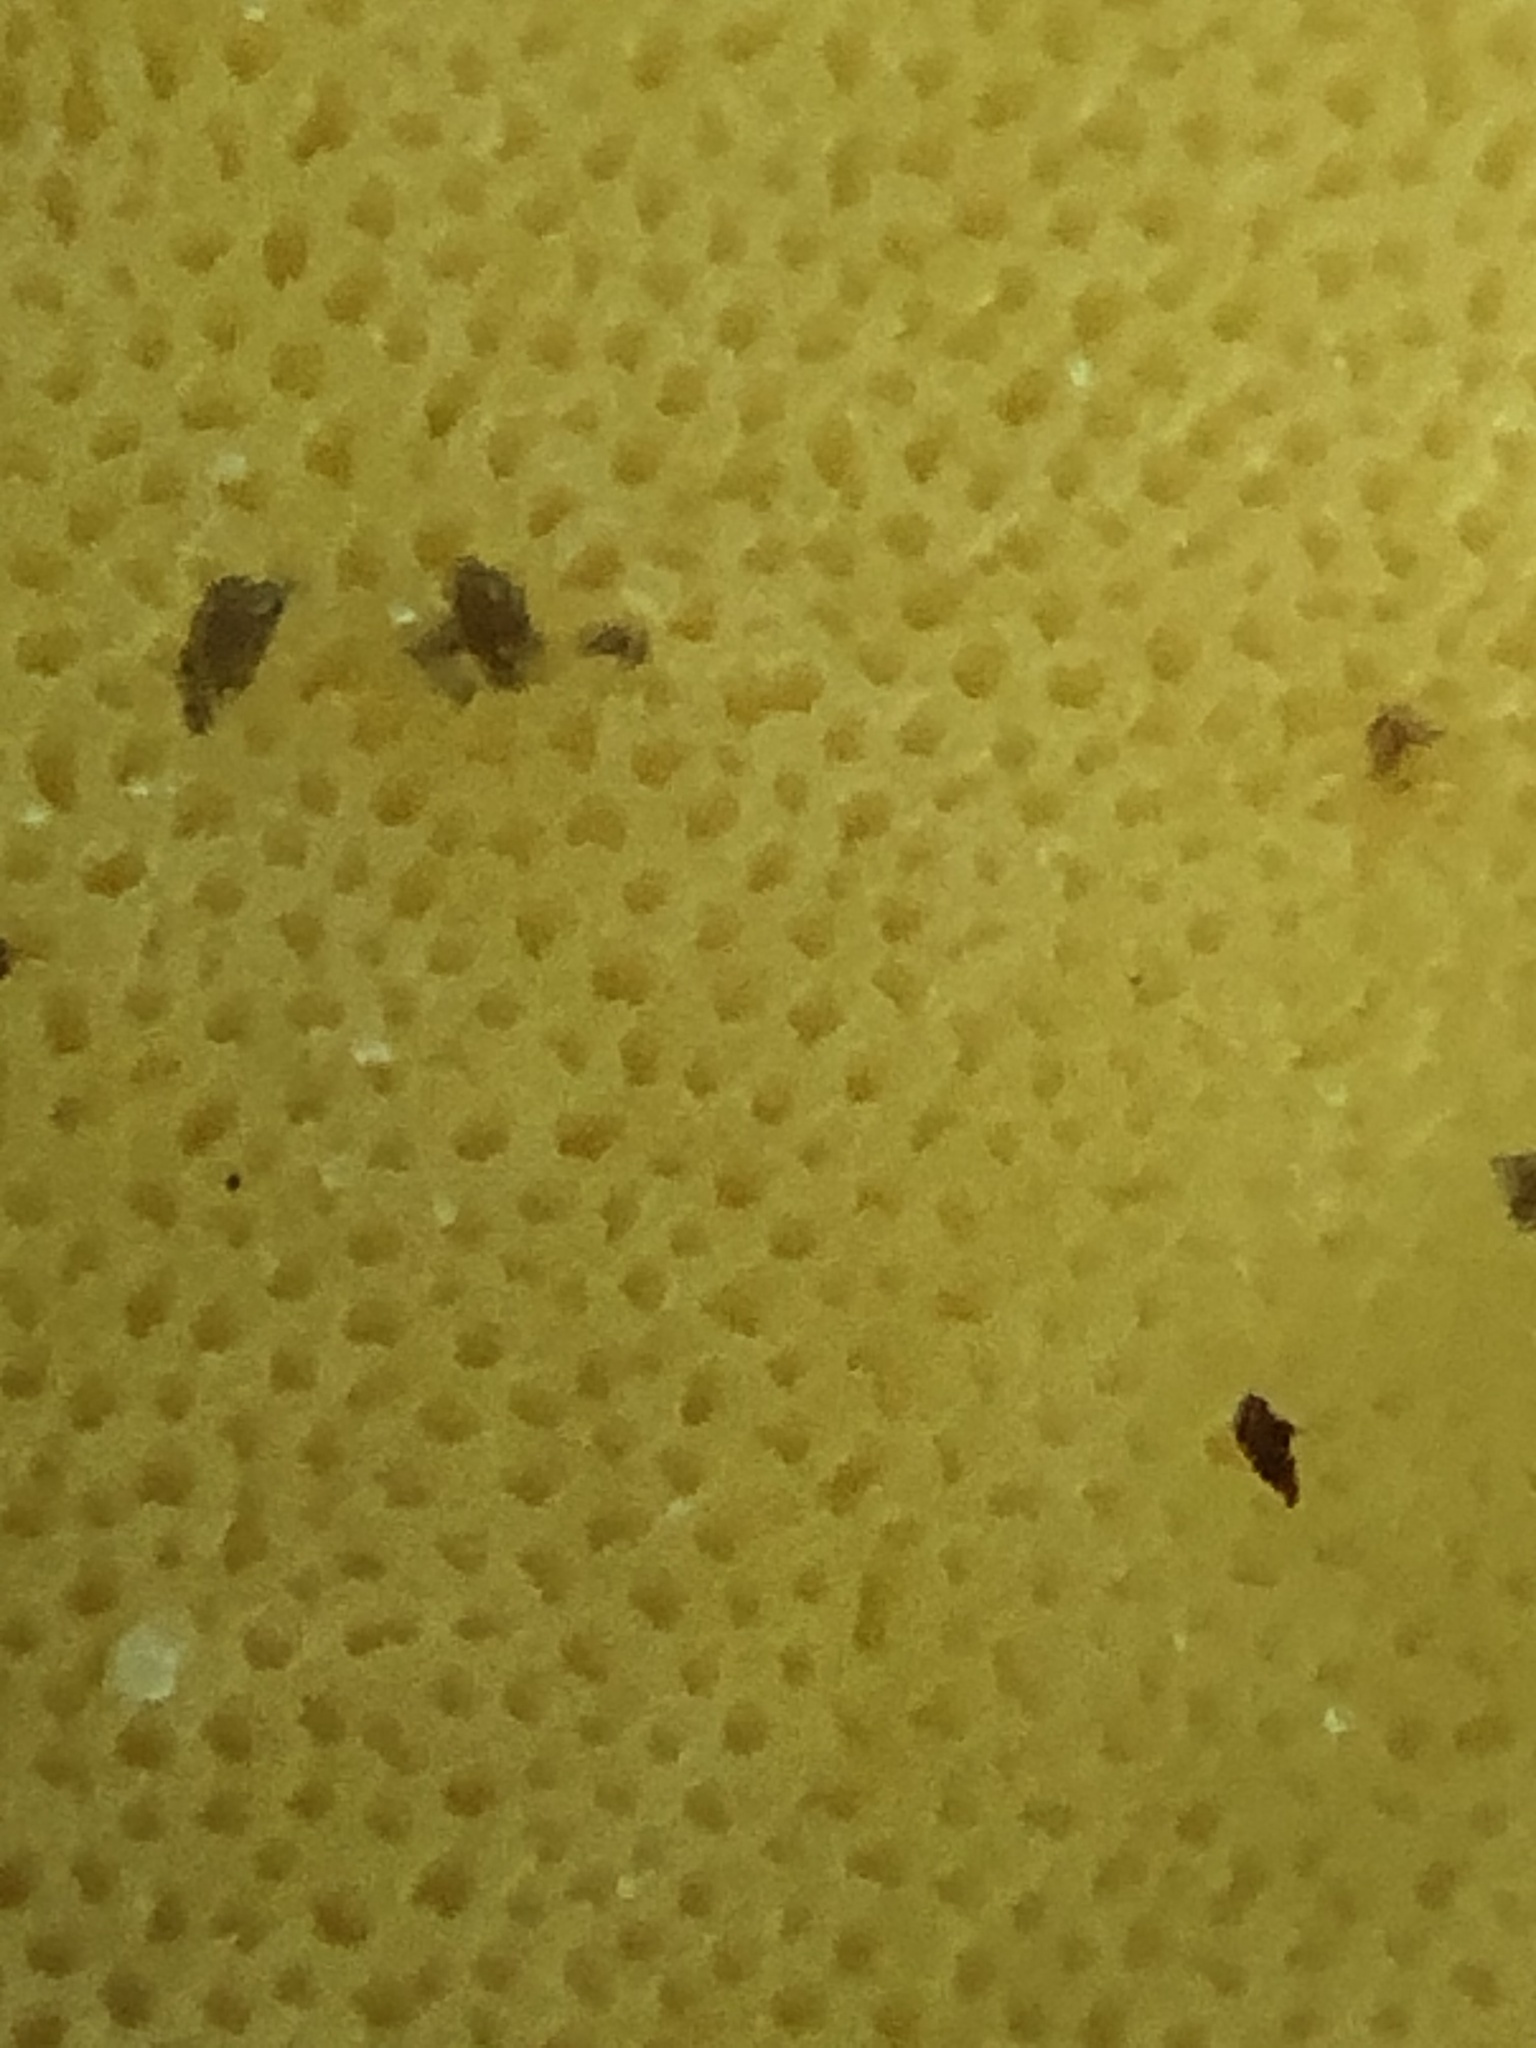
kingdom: Fungi
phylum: Basidiomycota
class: Agaricomycetes
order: Polyporales
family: Laetiporaceae
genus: Laetiporus
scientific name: Laetiporus
